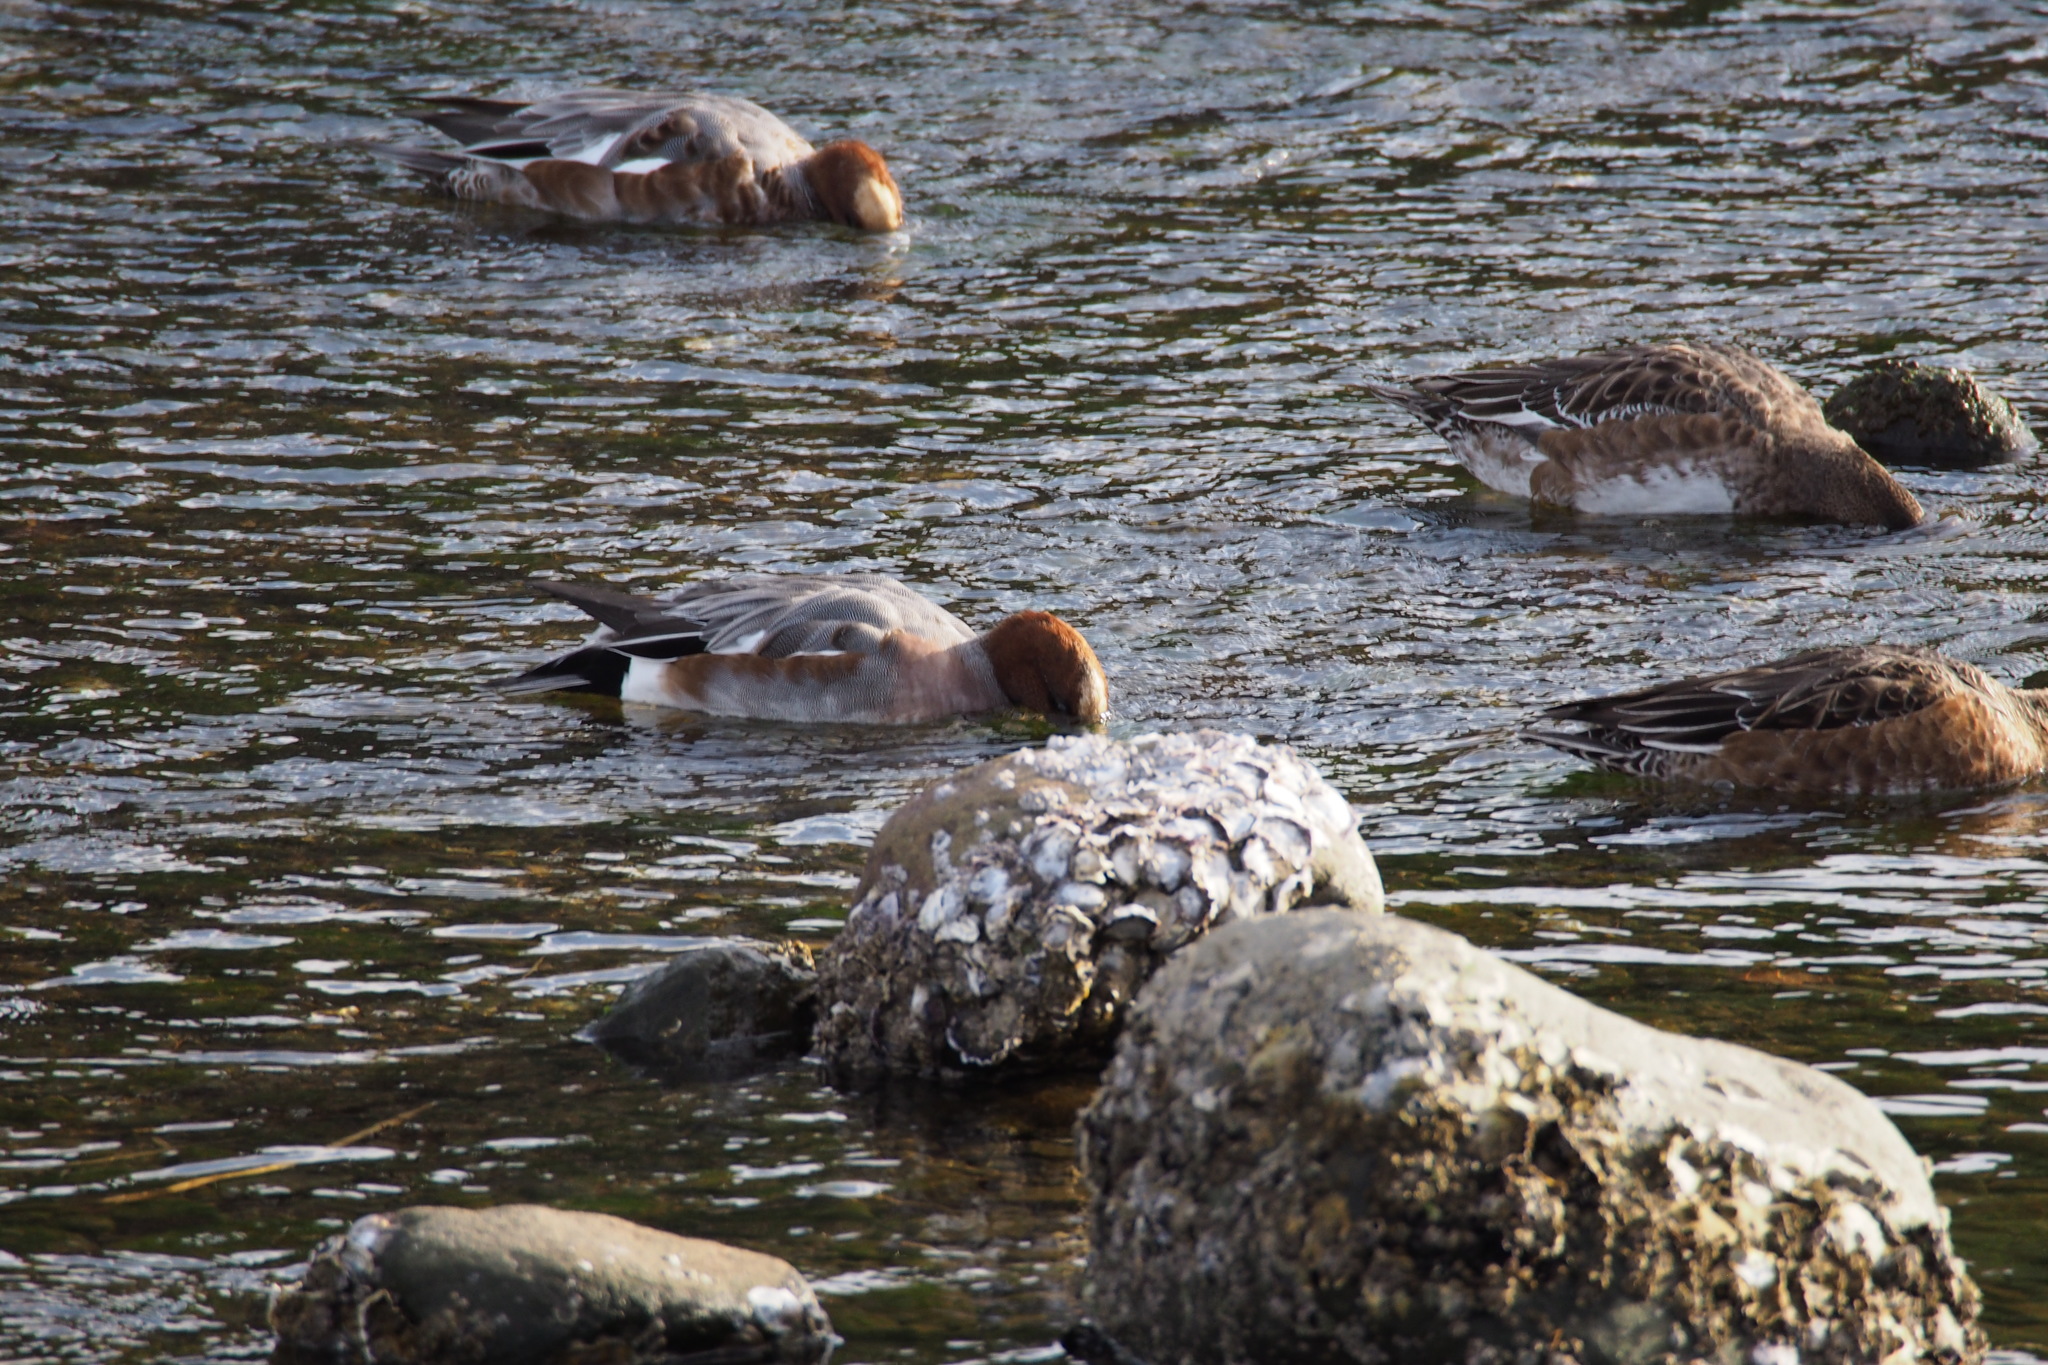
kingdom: Animalia
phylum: Chordata
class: Aves
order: Anseriformes
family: Anatidae
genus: Mareca
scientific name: Mareca penelope
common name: Eurasian wigeon
